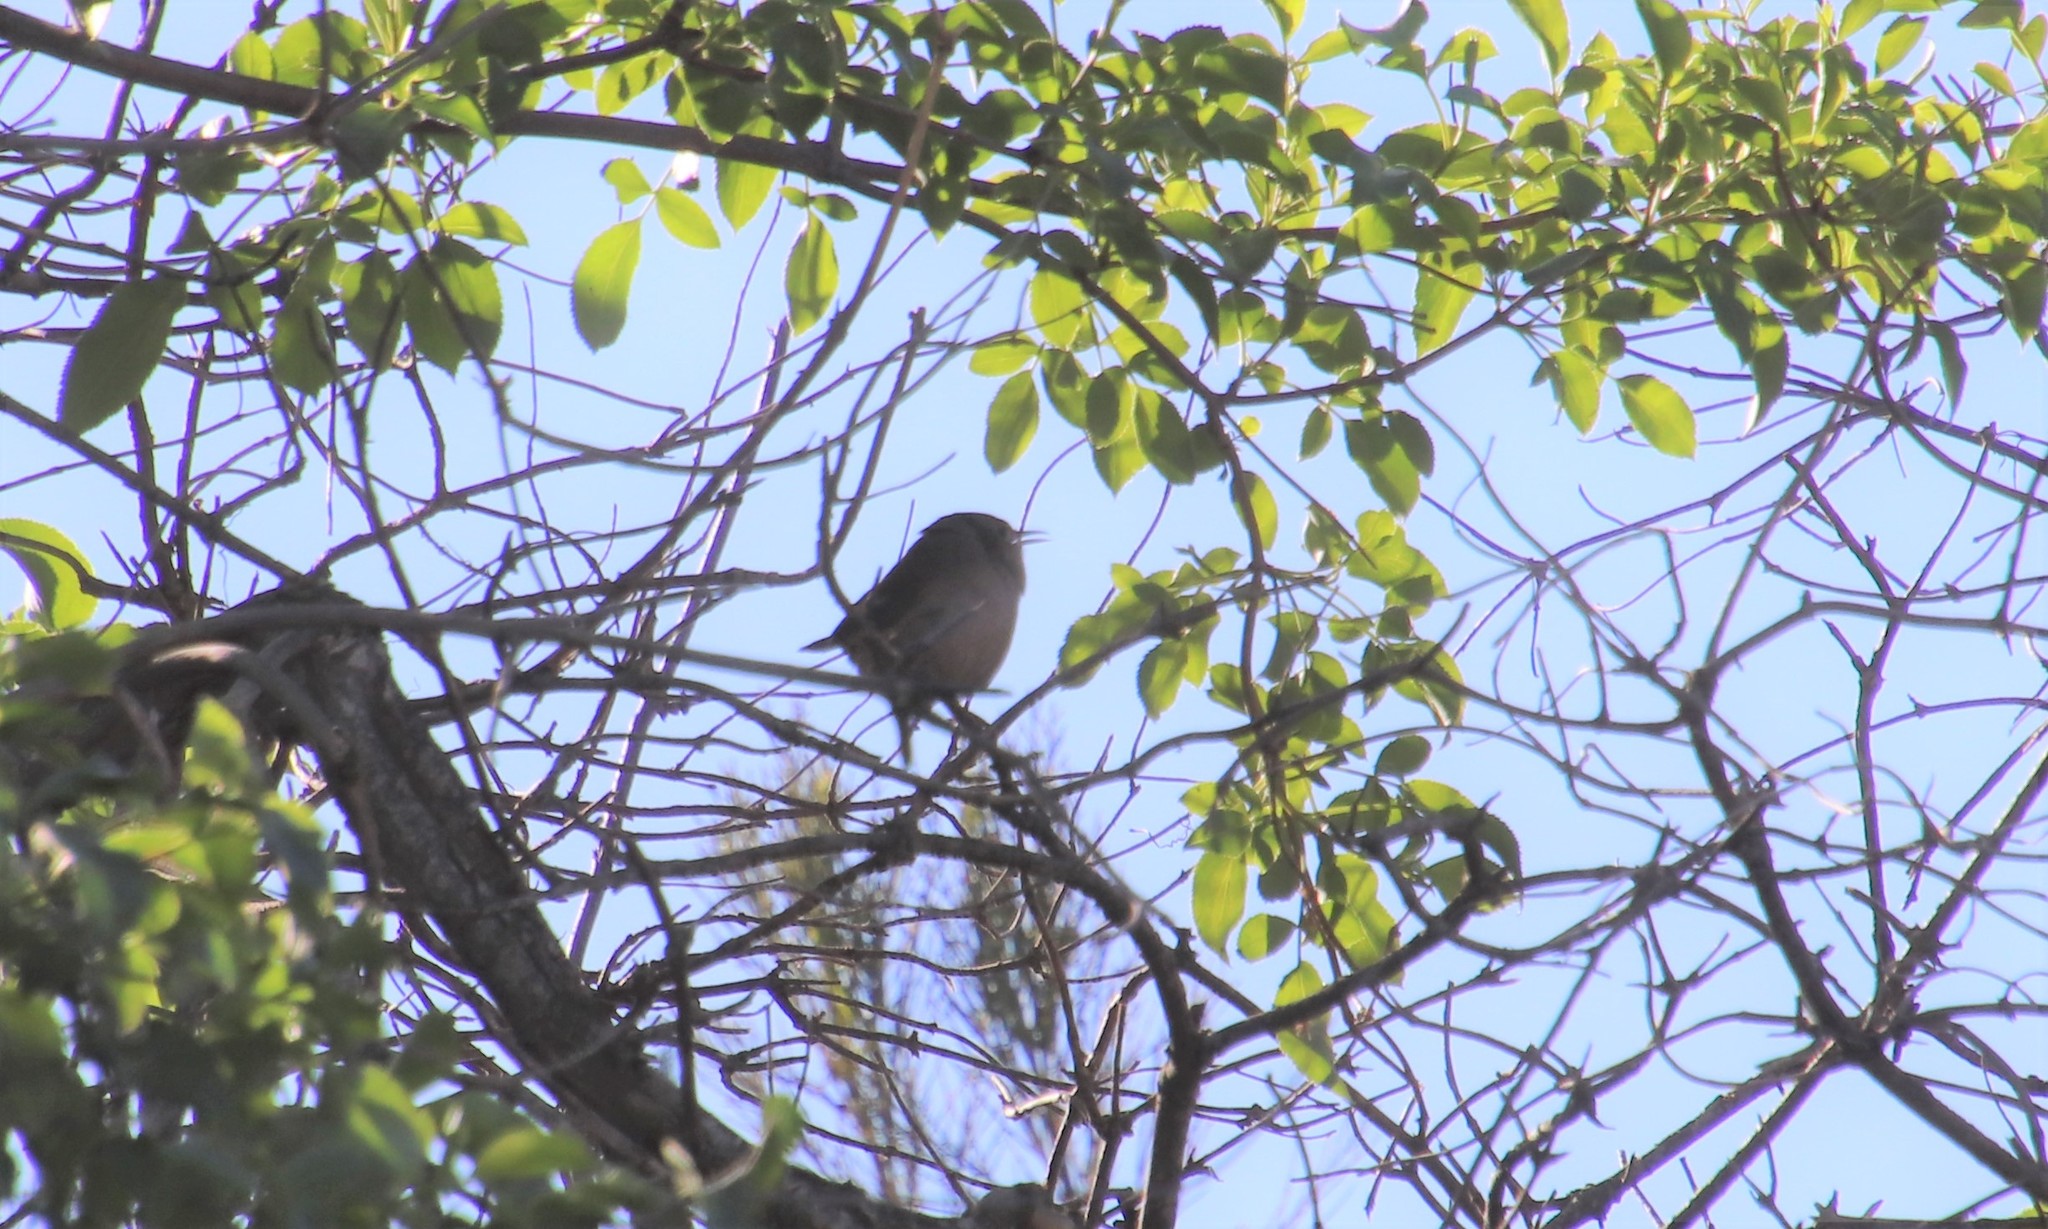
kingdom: Animalia
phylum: Chordata
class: Aves
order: Passeriformes
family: Troglodytidae
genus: Troglodytes
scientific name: Troglodytes aedon
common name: House wren
